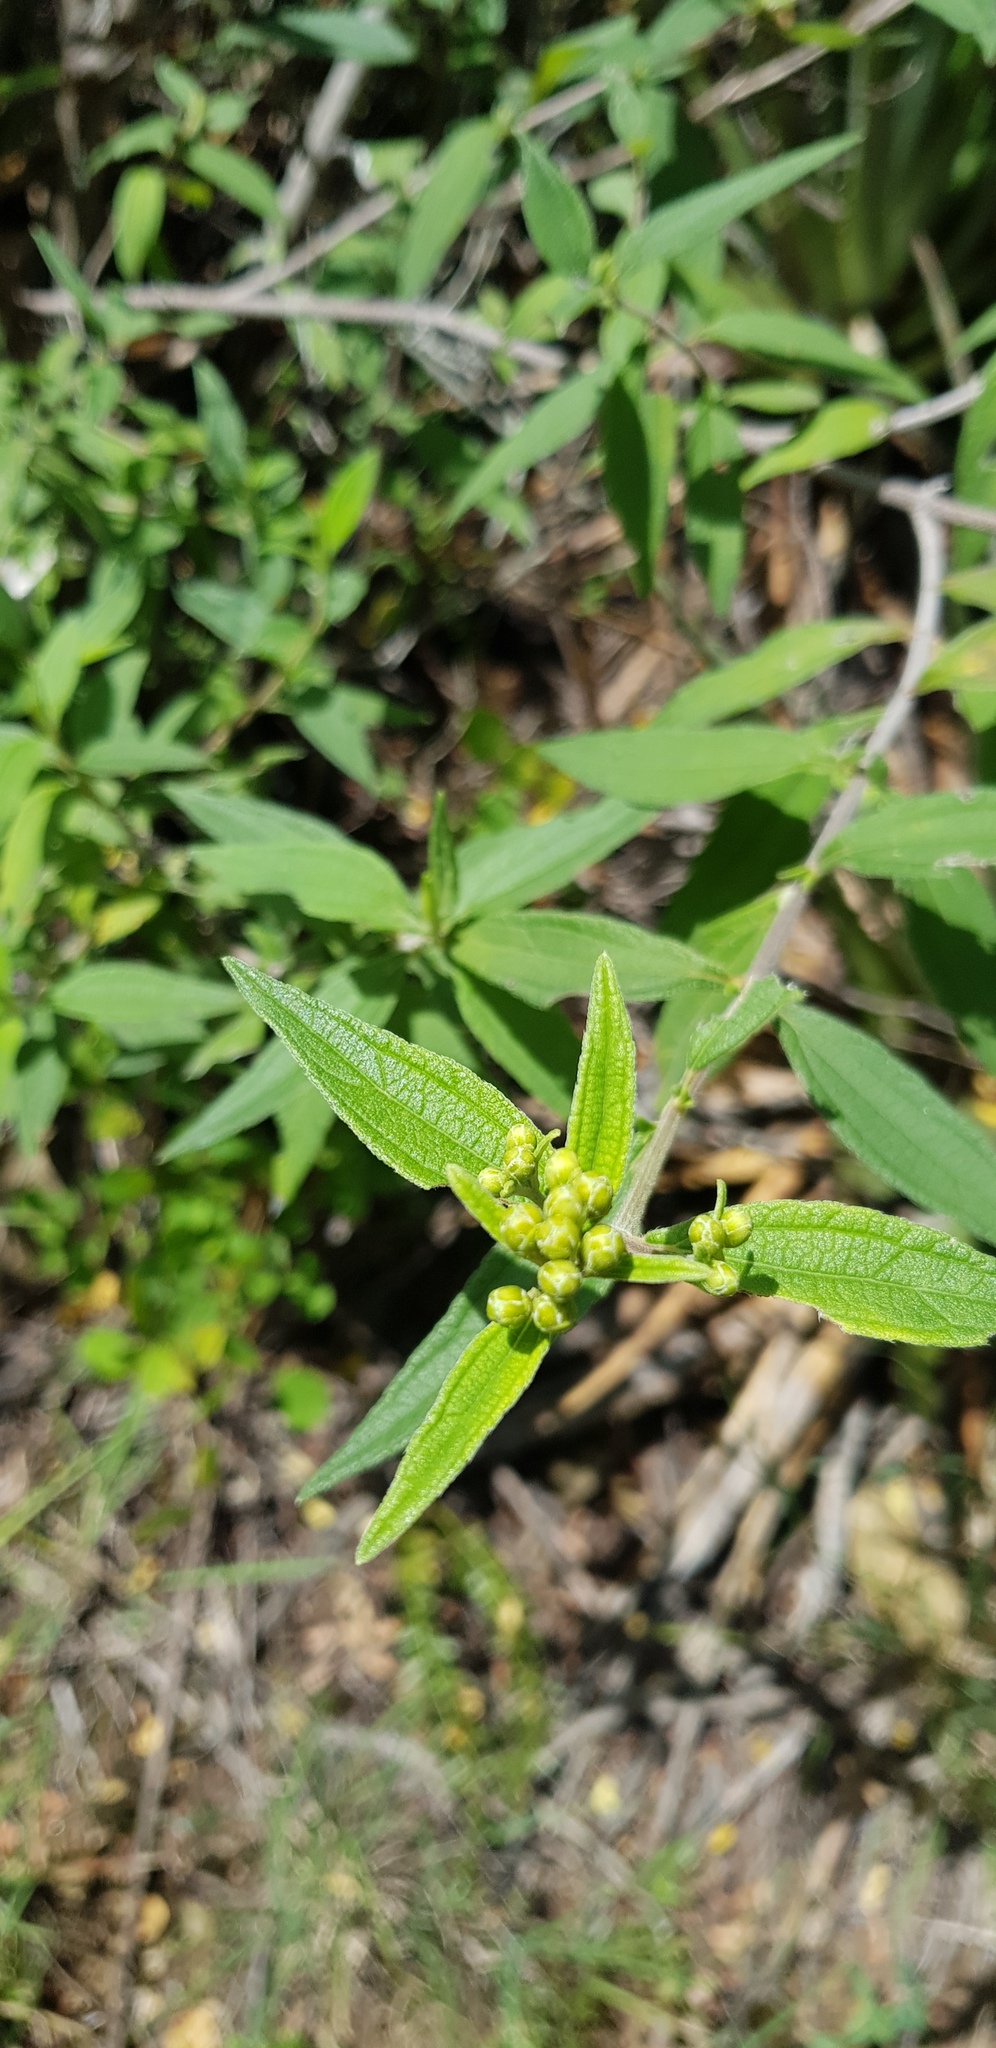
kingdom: Plantae
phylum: Tracheophyta
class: Magnoliopsida
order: Asterales
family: Asteraceae
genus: Perymenium
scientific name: Perymenium discolor
